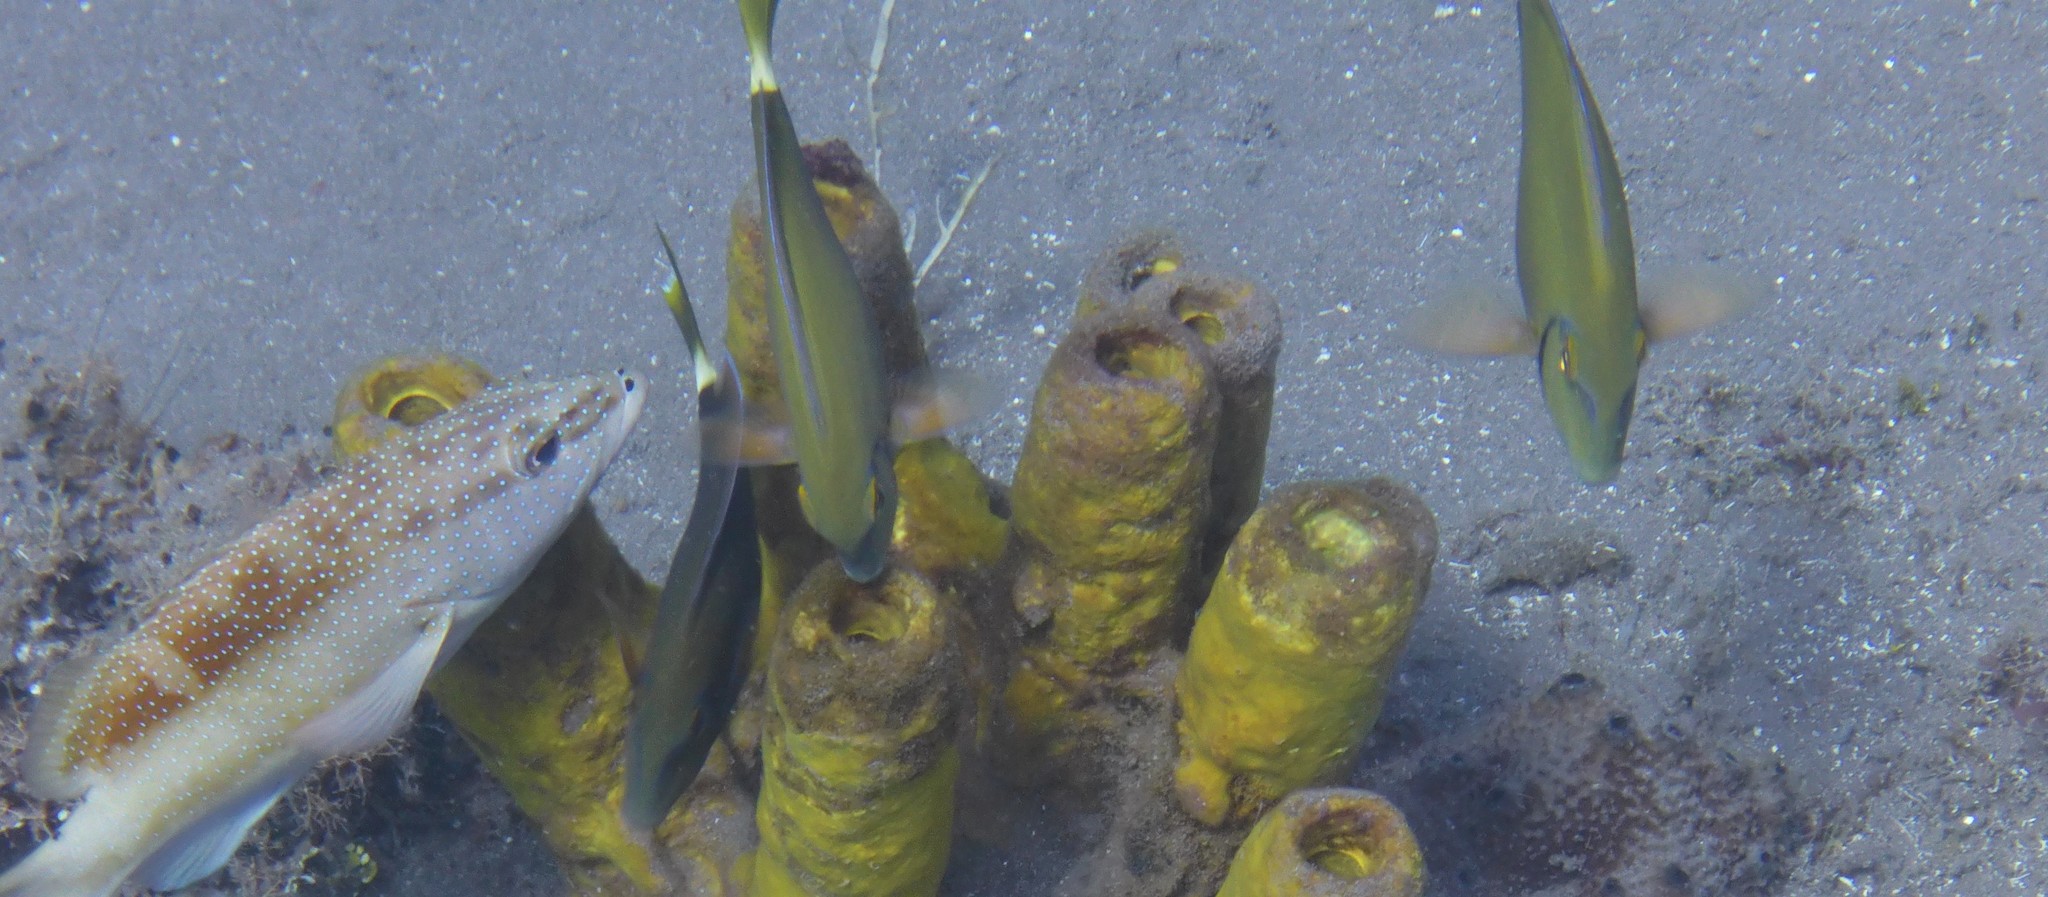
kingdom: Animalia
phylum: Chordata
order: Perciformes
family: Acanthuridae
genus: Acanthurus
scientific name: Acanthurus bahianus
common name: Ocean surgeon
